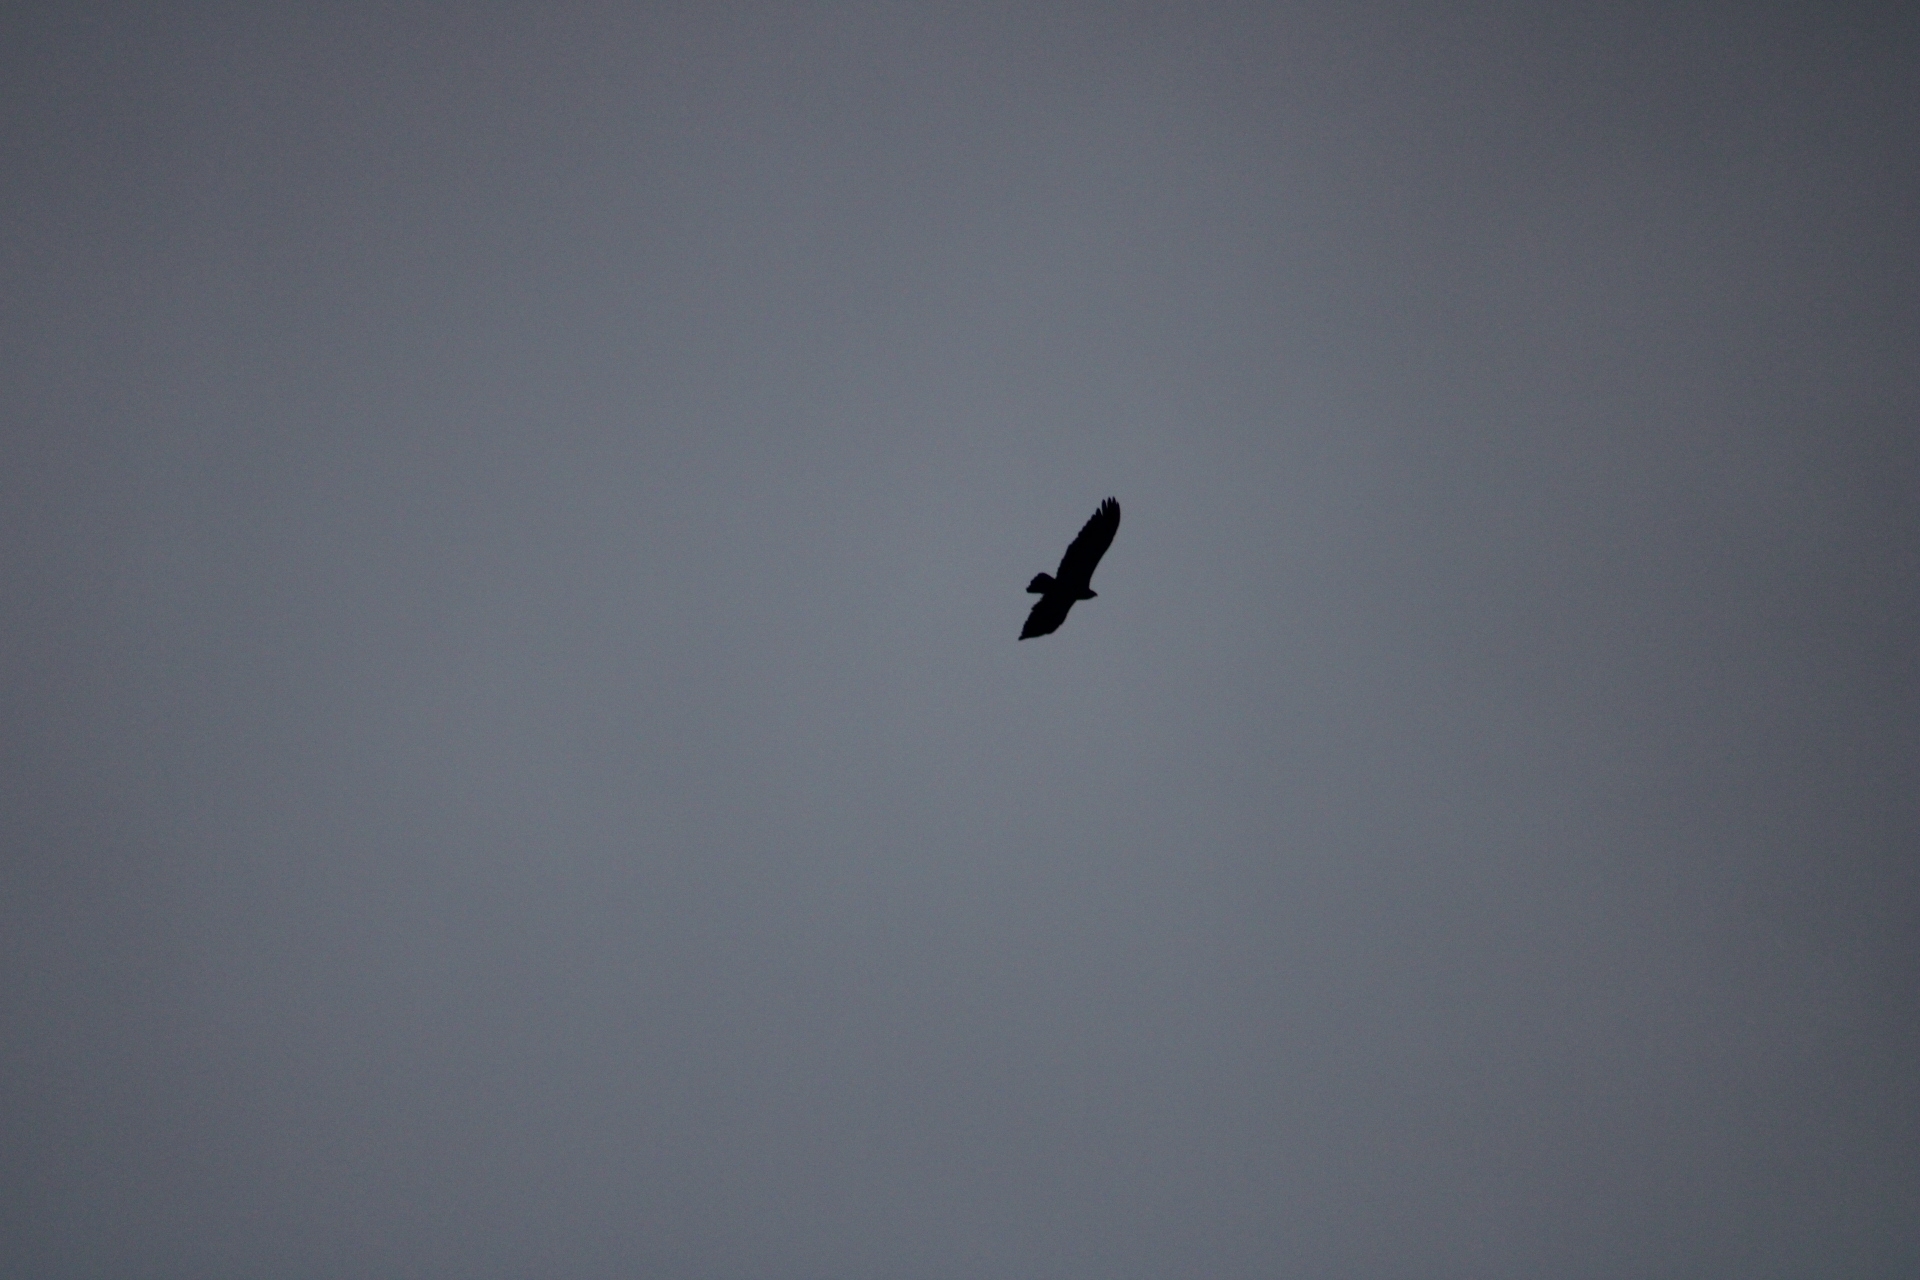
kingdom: Animalia
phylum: Chordata
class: Aves
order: Accipitriformes
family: Cathartidae
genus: Cathartes
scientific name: Cathartes aura
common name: Turkey vulture
